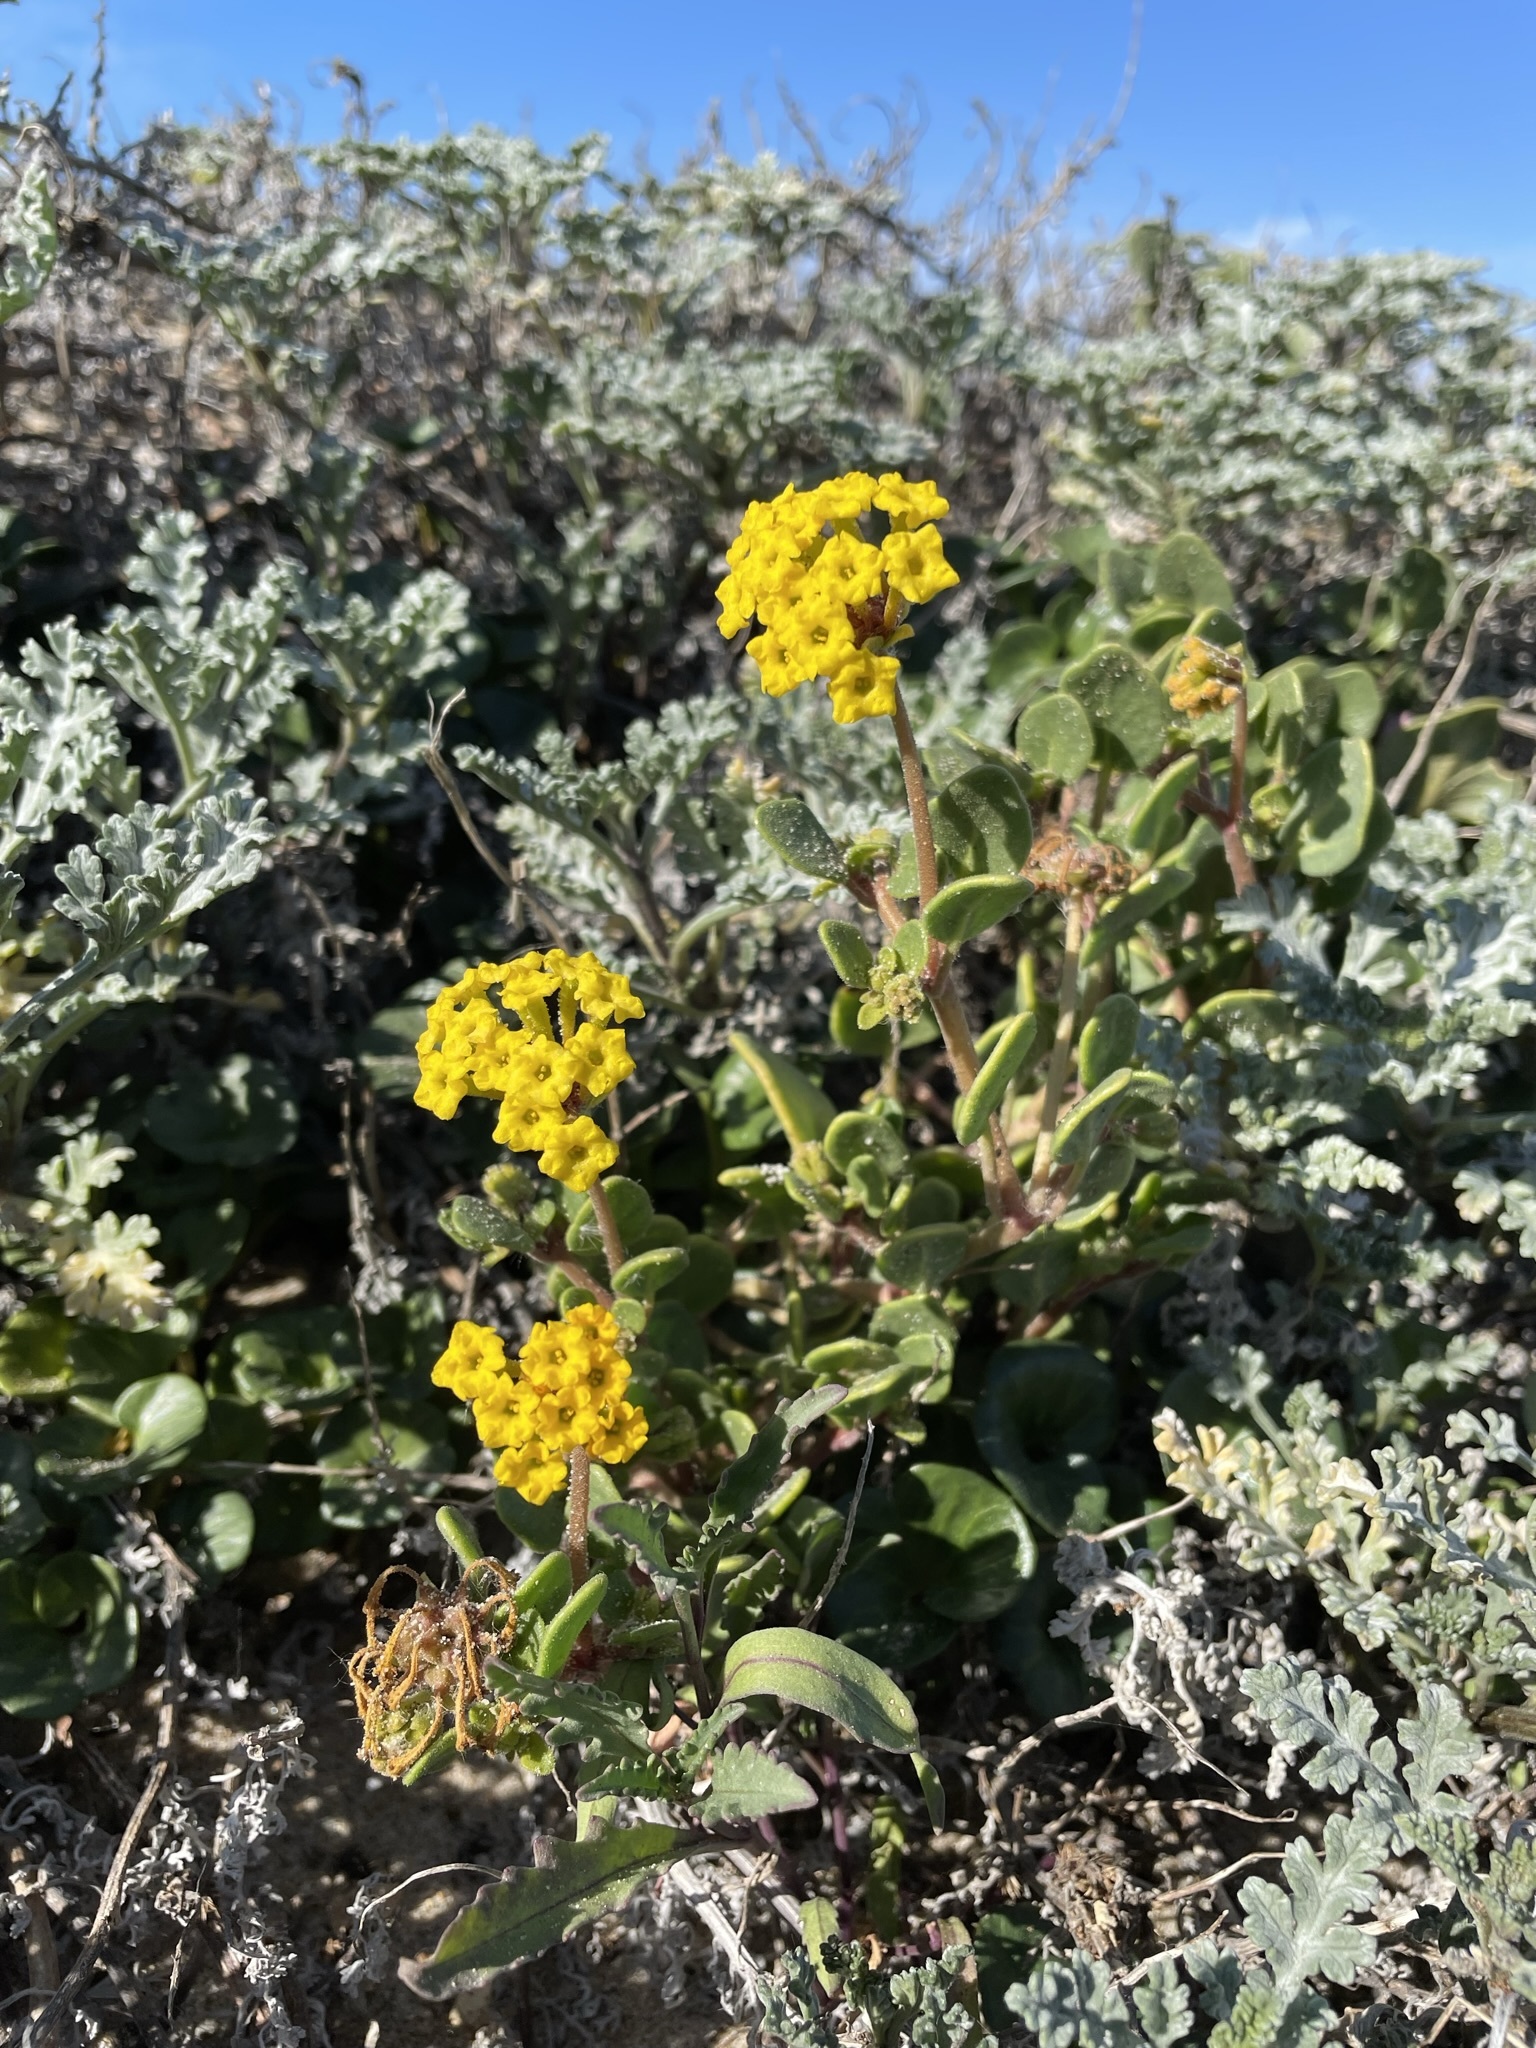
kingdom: Plantae
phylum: Tracheophyta
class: Magnoliopsida
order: Caryophyllales
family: Nyctaginaceae
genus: Abronia
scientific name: Abronia latifolia
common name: Yellow sand-verbena
